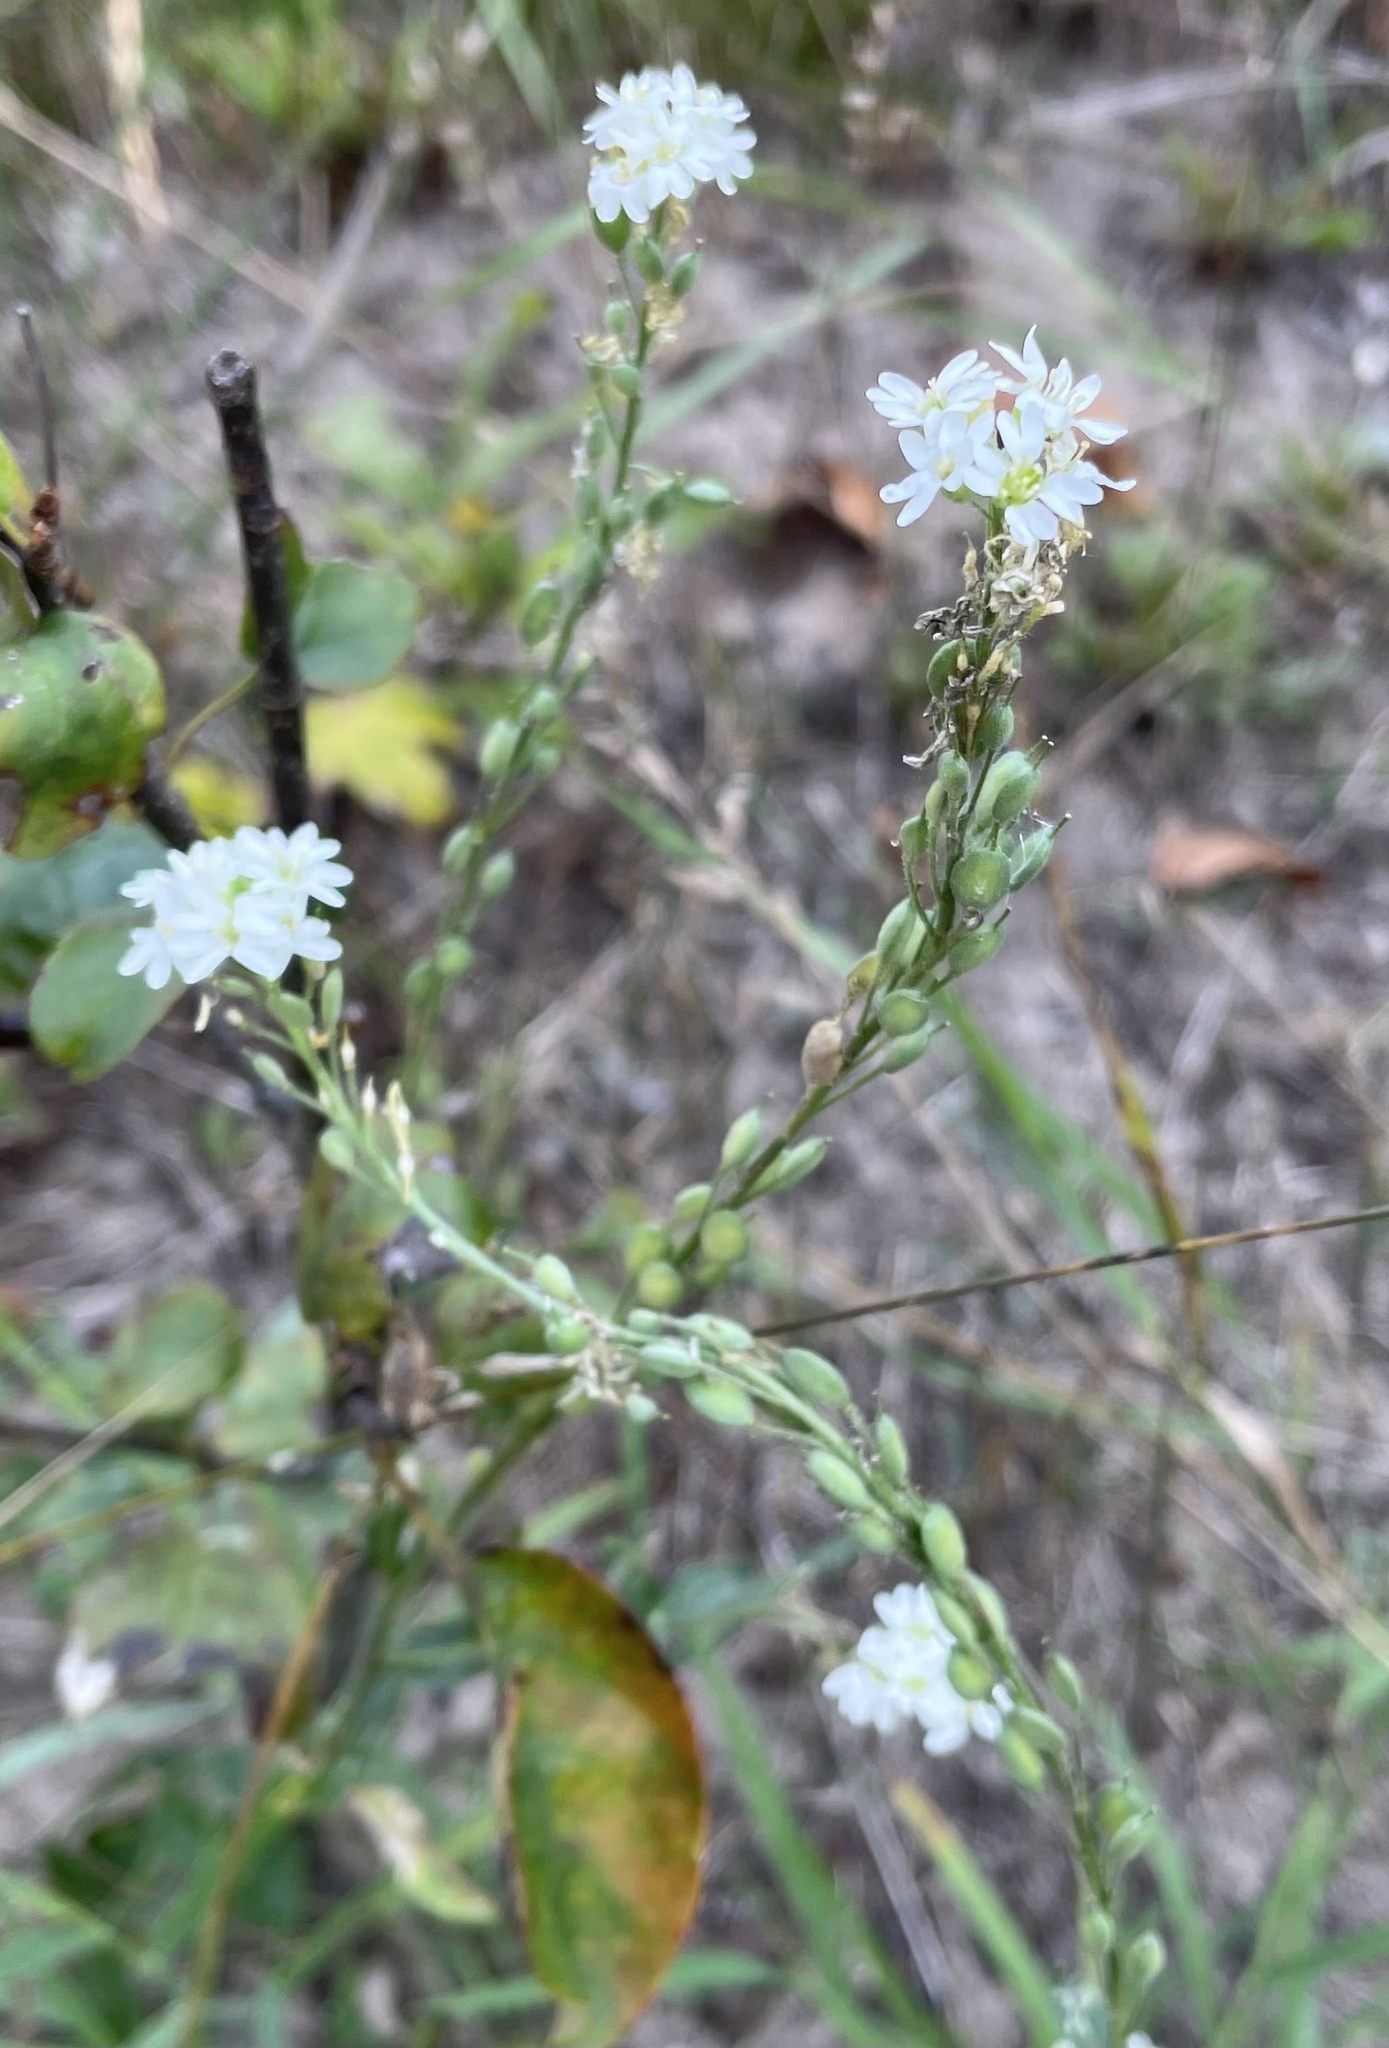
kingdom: Plantae
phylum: Tracheophyta
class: Magnoliopsida
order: Brassicales
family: Brassicaceae
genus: Berteroa
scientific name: Berteroa incana
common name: Hoary alison
